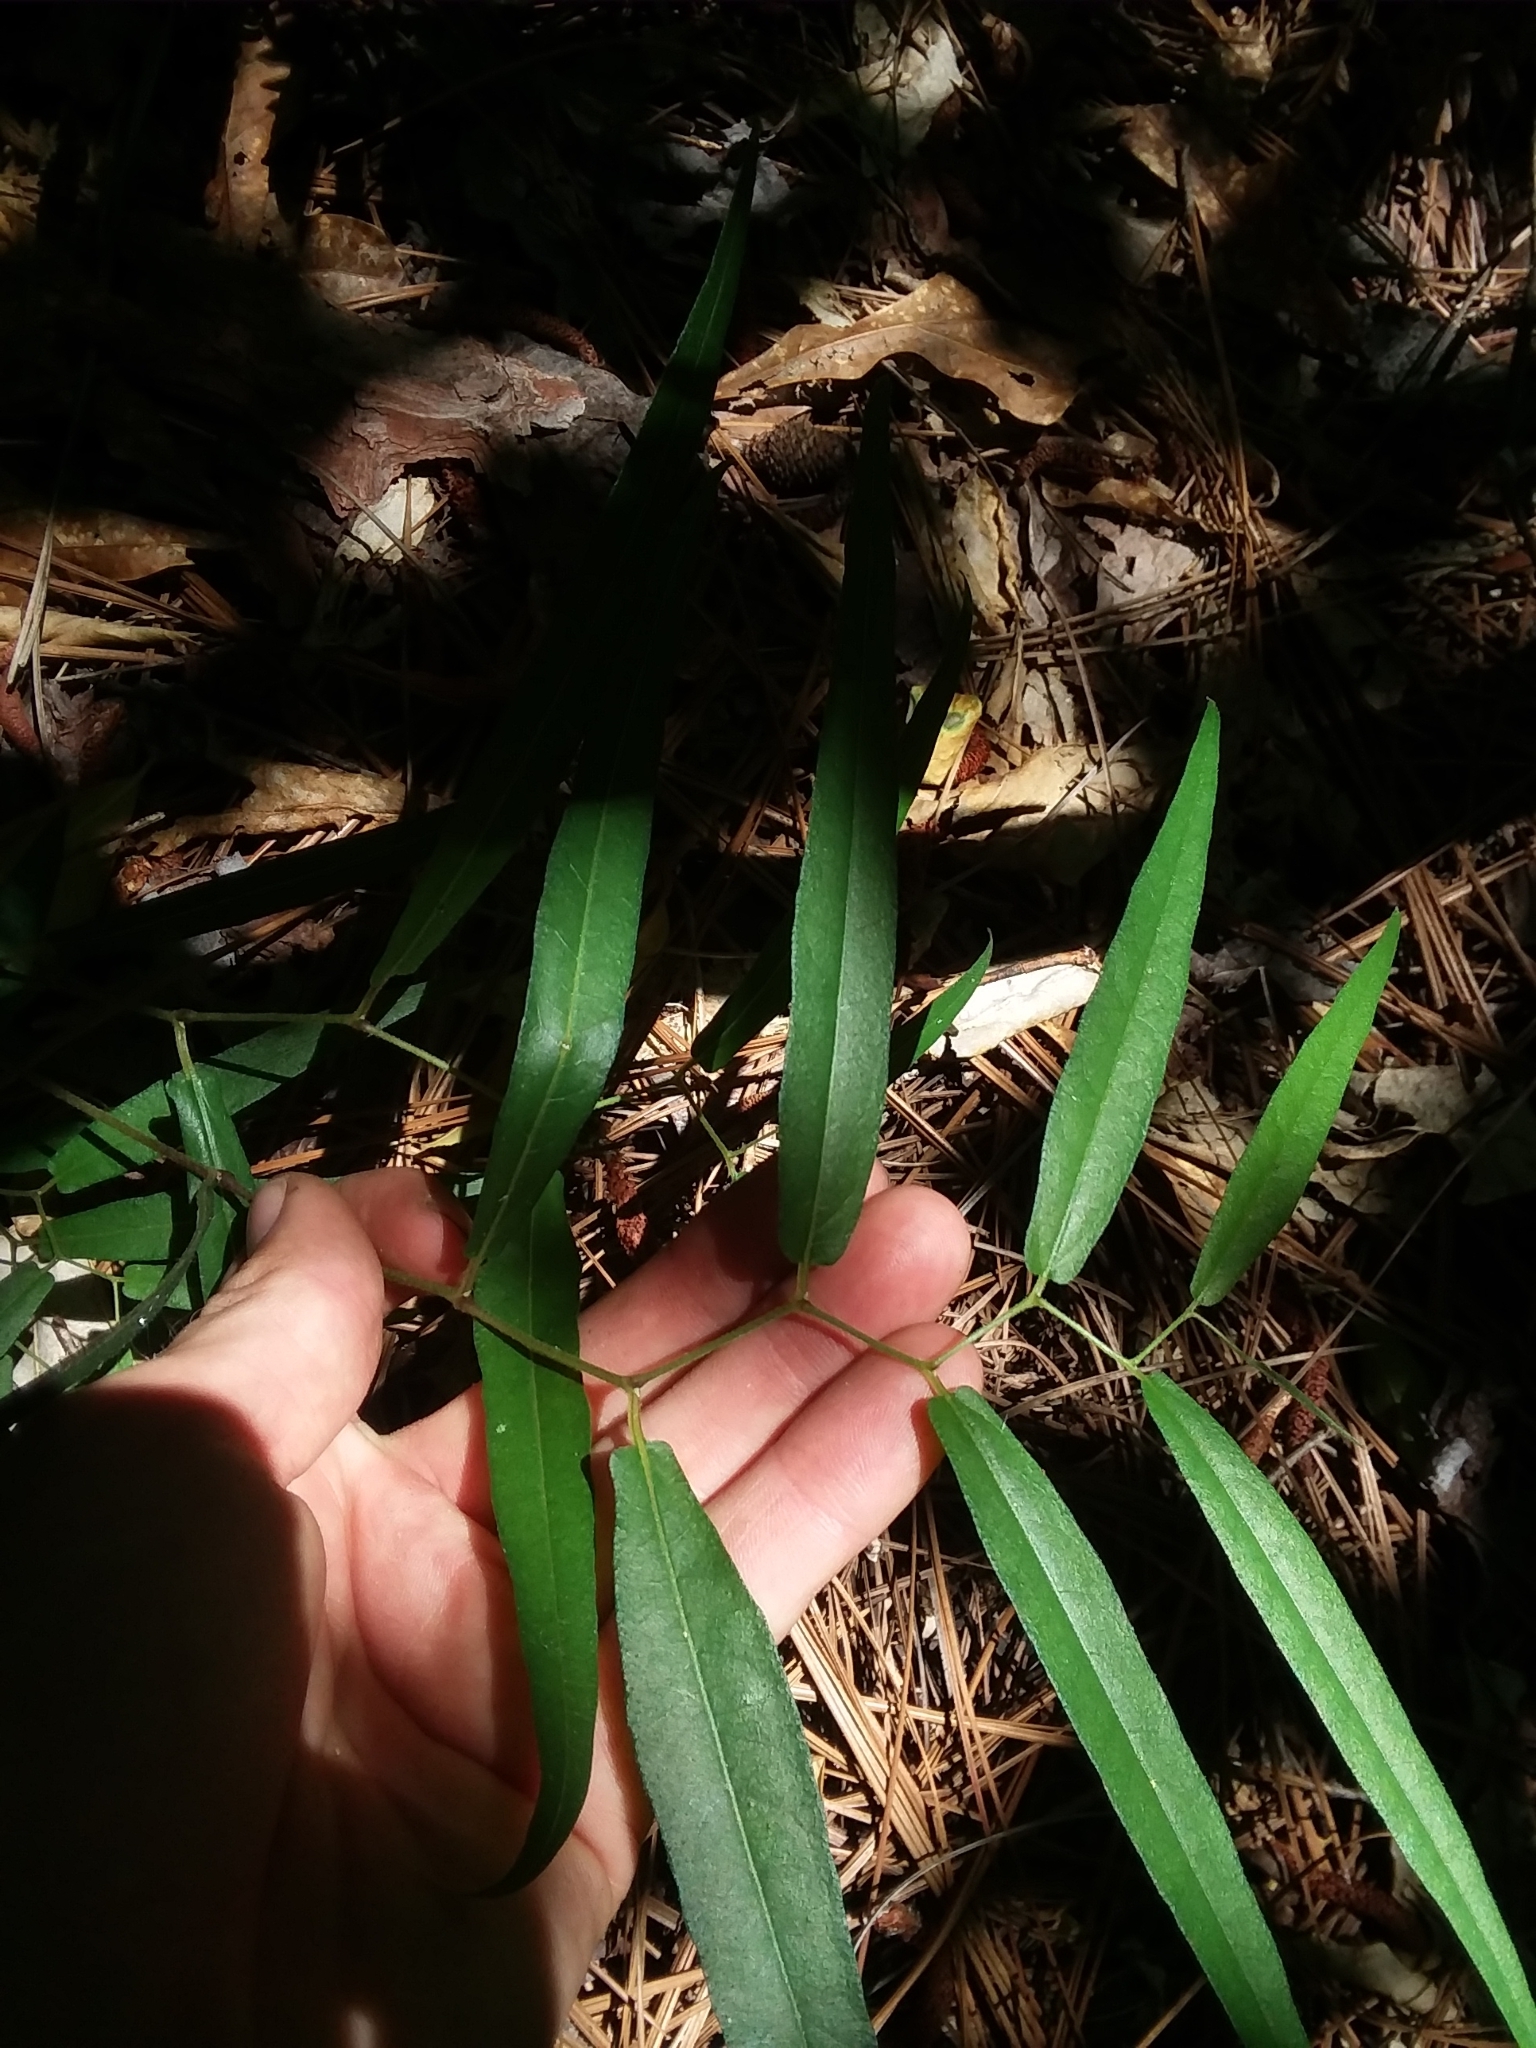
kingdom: Plantae
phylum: Tracheophyta
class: Magnoliopsida
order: Piperales
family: Aristolochiaceae
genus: Endodeca
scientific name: Endodeca serpentaria
